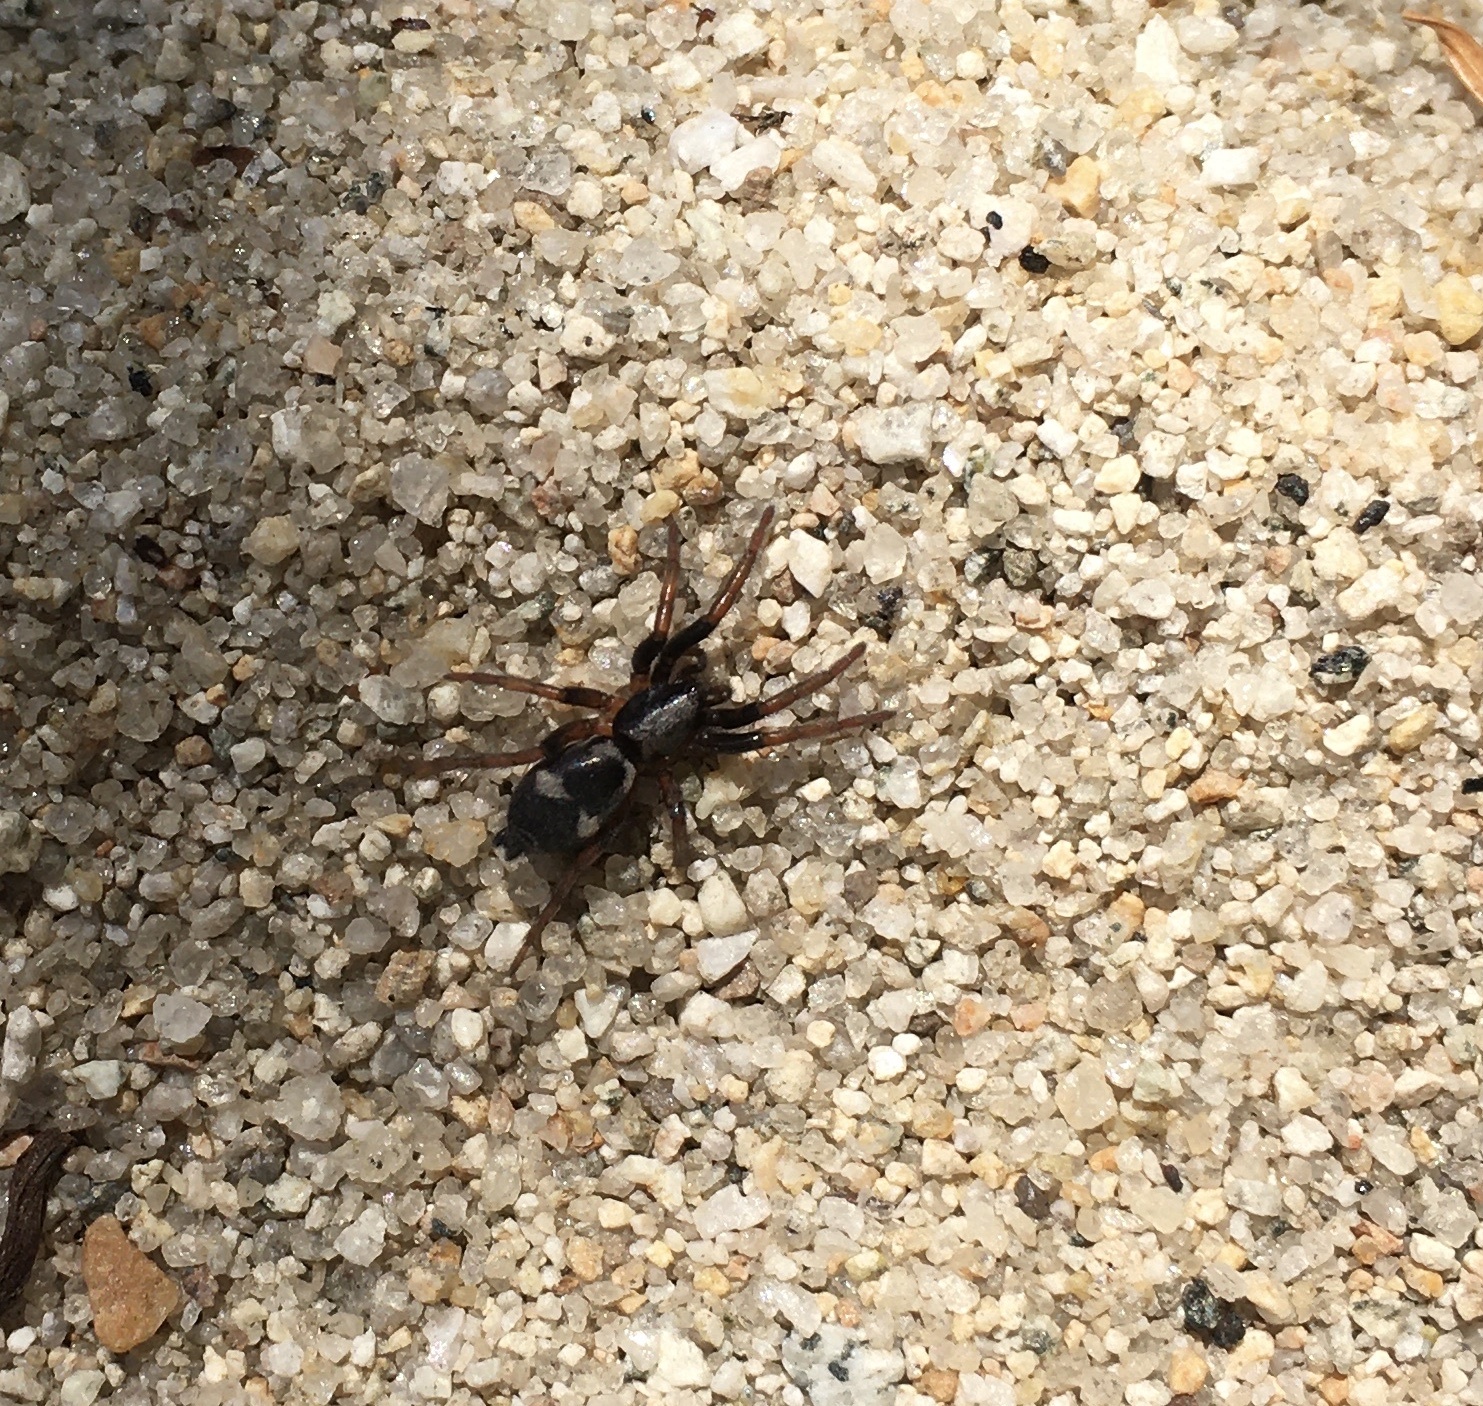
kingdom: Animalia
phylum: Arthropoda
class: Arachnida
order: Araneae
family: Gnaphosidae
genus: Sergiolus
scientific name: Sergiolus montanus
